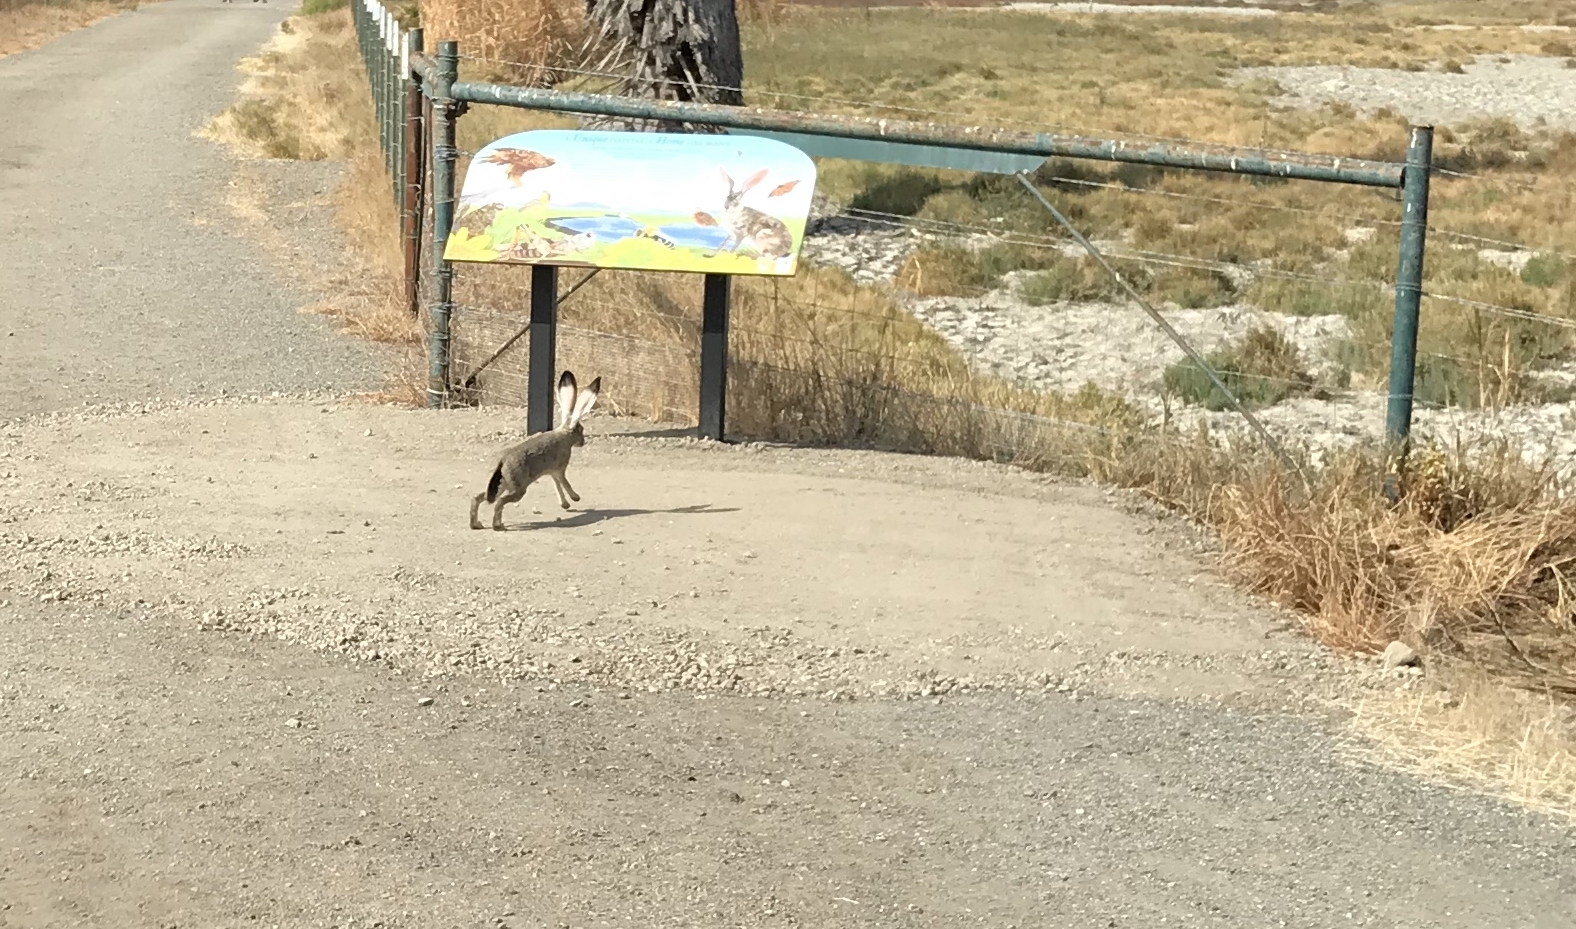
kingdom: Animalia
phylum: Chordata
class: Mammalia
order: Lagomorpha
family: Leporidae
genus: Lepus
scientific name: Lepus californicus
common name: Black-tailed jackrabbit
